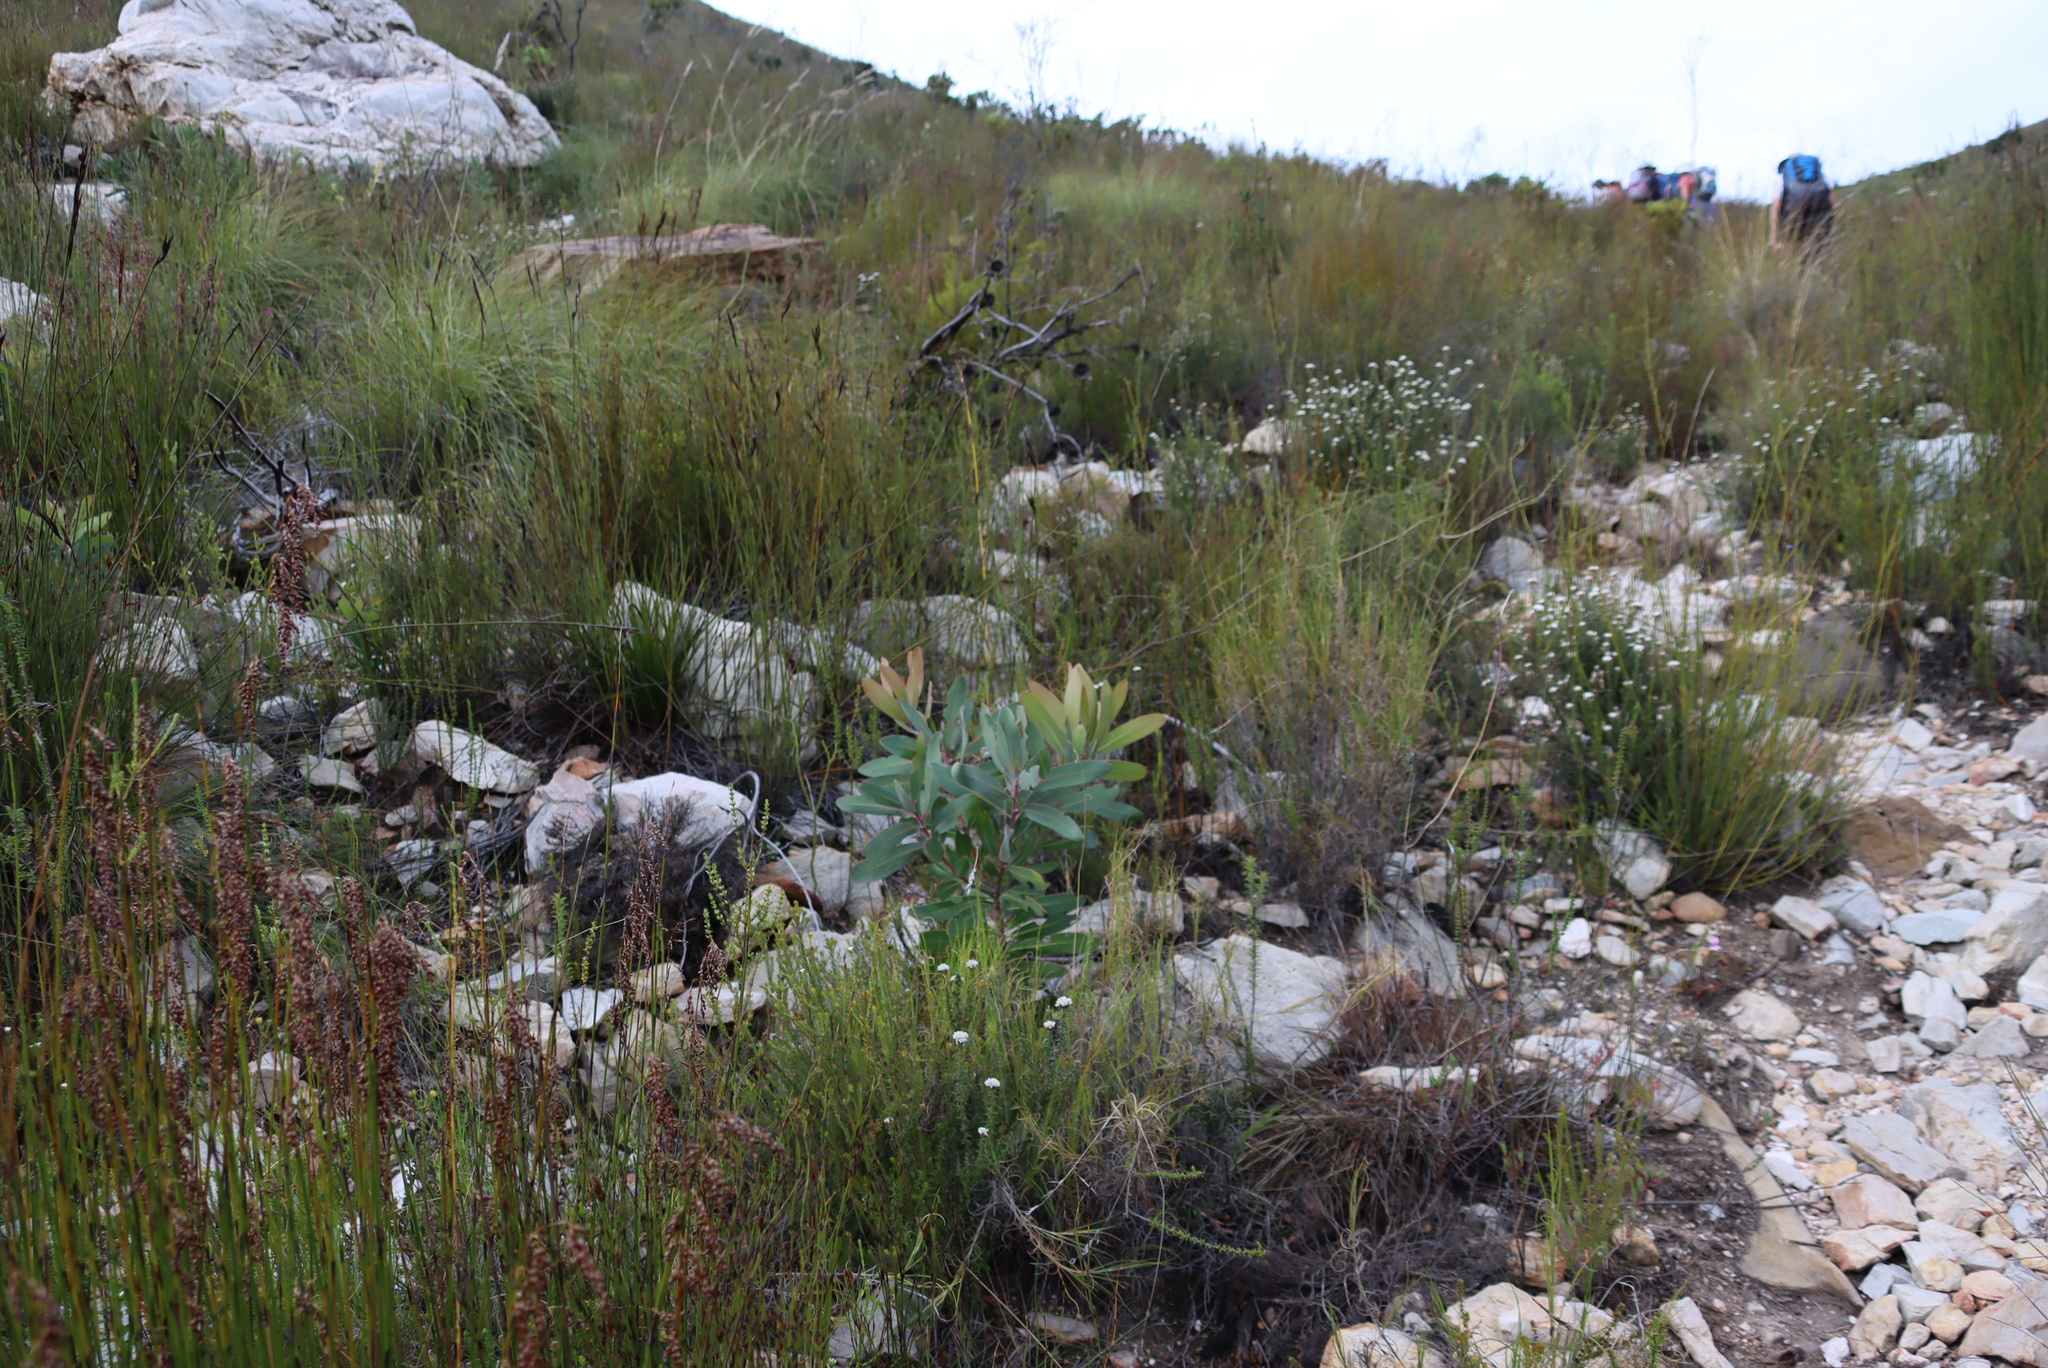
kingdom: Plantae
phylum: Tracheophyta
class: Magnoliopsida
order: Proteales
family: Proteaceae
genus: Protea
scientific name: Protea lorifolia
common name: Strap-leaved protea
